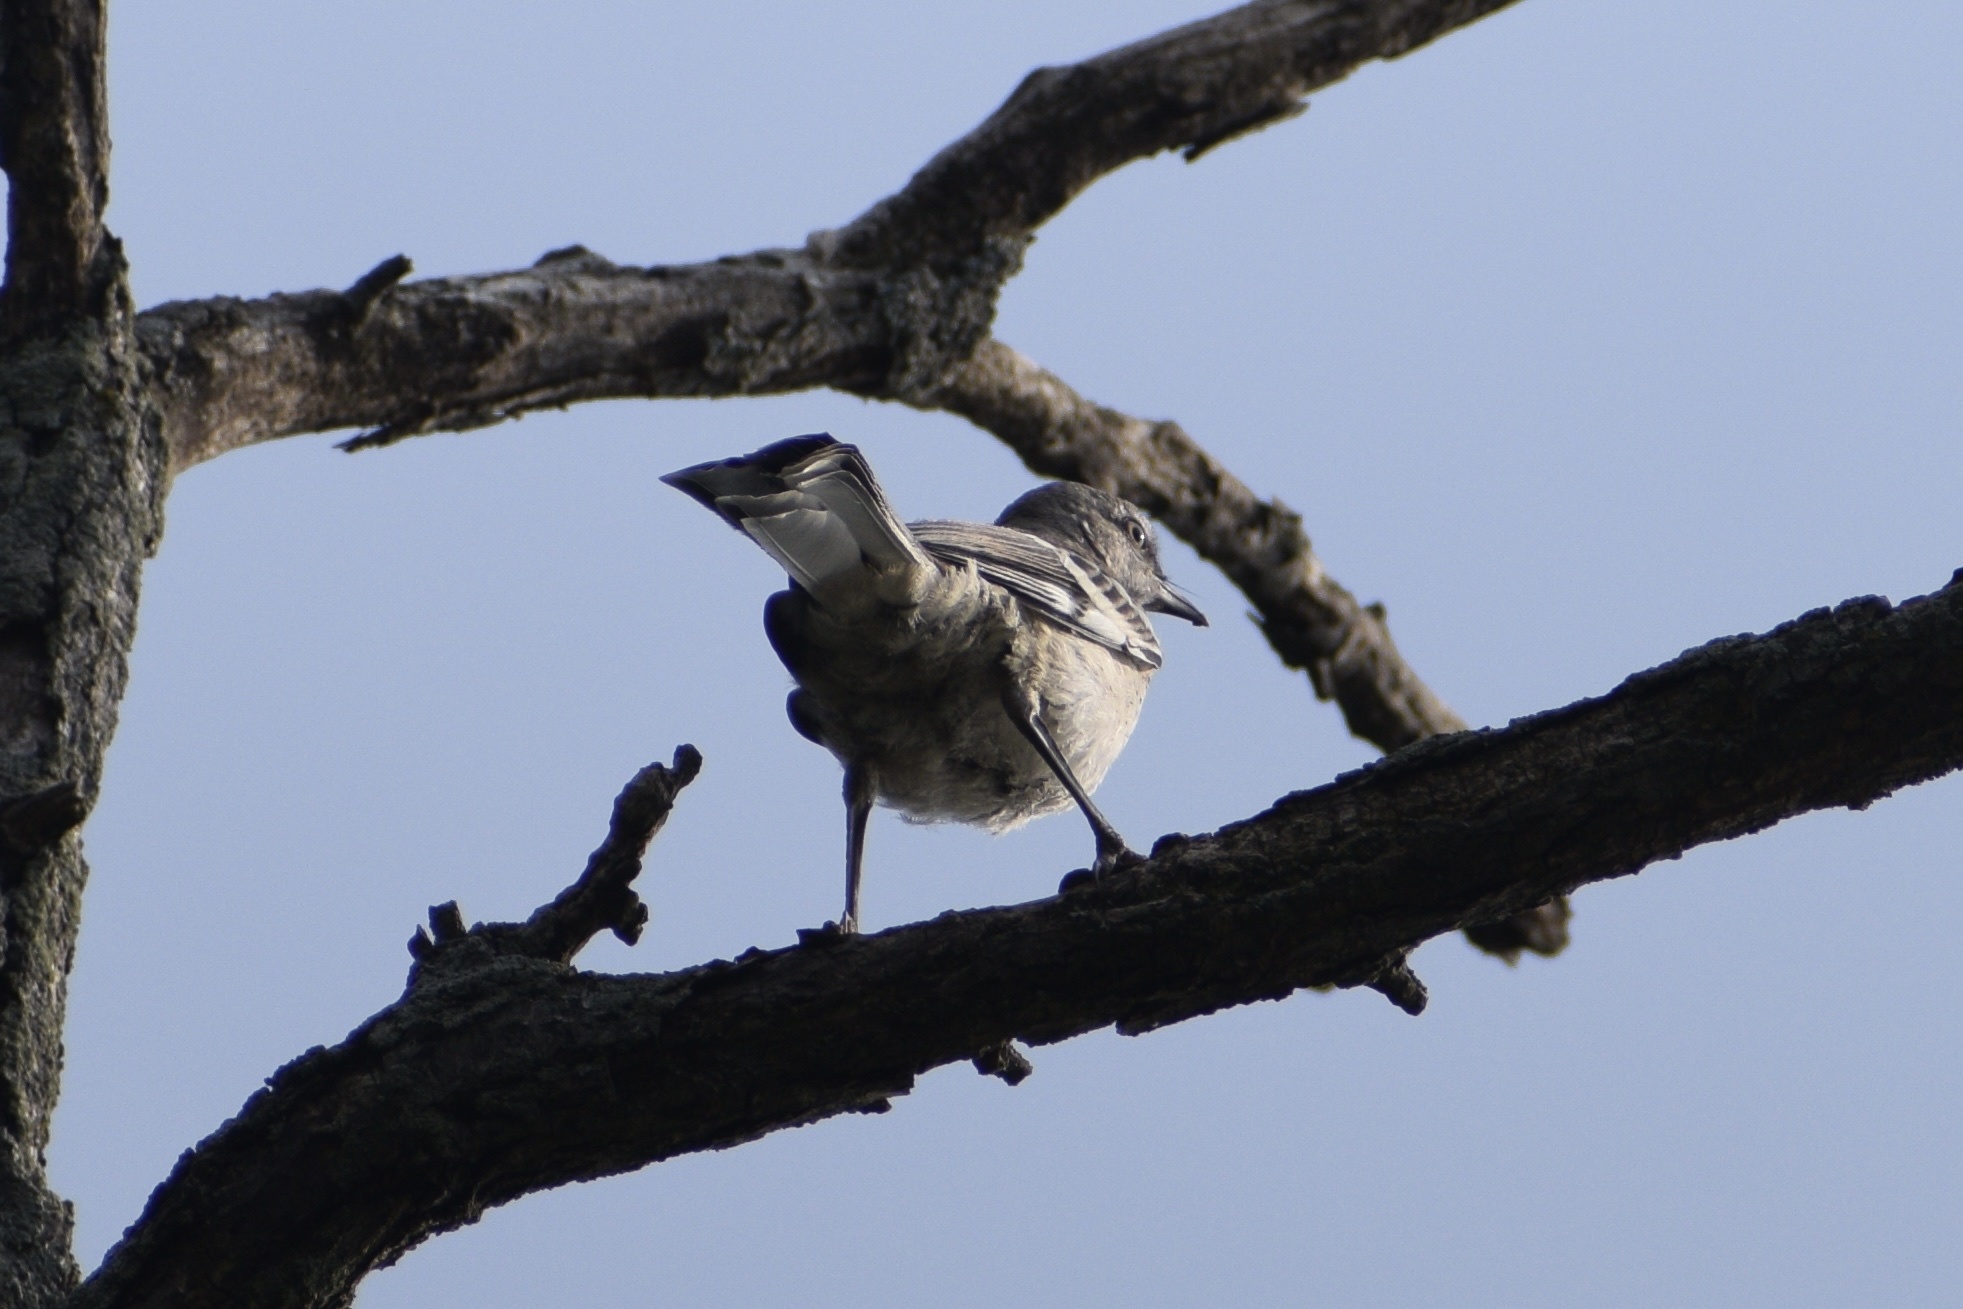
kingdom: Animalia
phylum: Chordata
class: Aves
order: Passeriformes
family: Mimidae
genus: Mimus
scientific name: Mimus polyglottos
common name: Northern mockingbird
